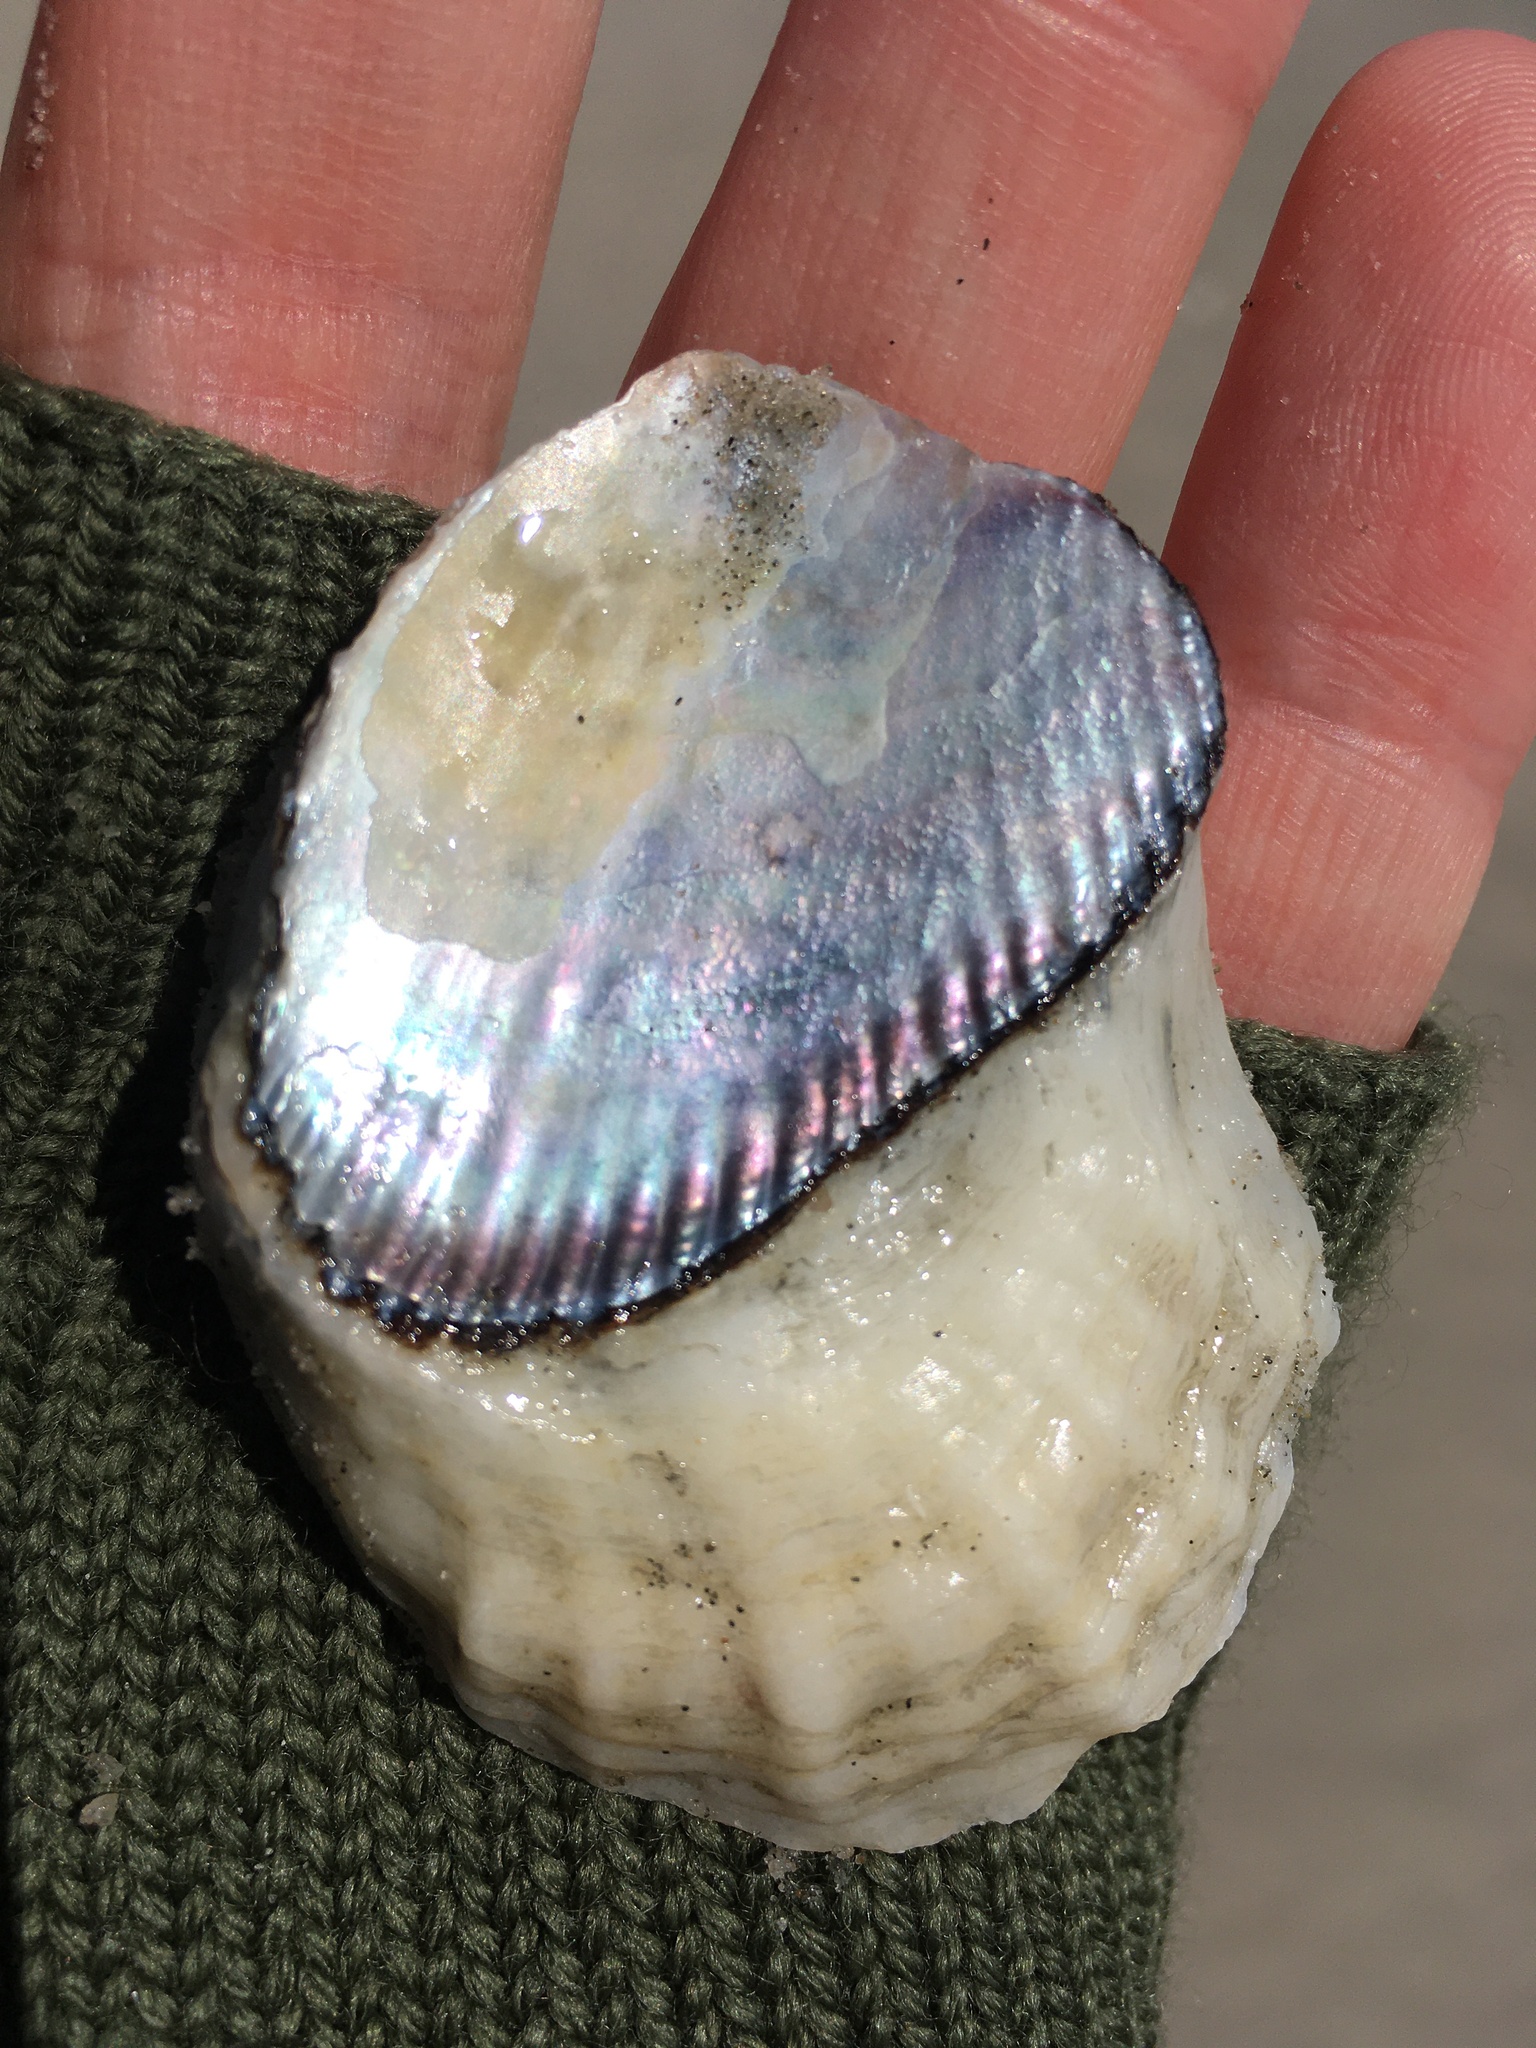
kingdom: Animalia
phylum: Mollusca
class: Bivalvia
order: Ostreida
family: Ostreidae
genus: Crassostrea
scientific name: Crassostrea virginica
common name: American oyster
